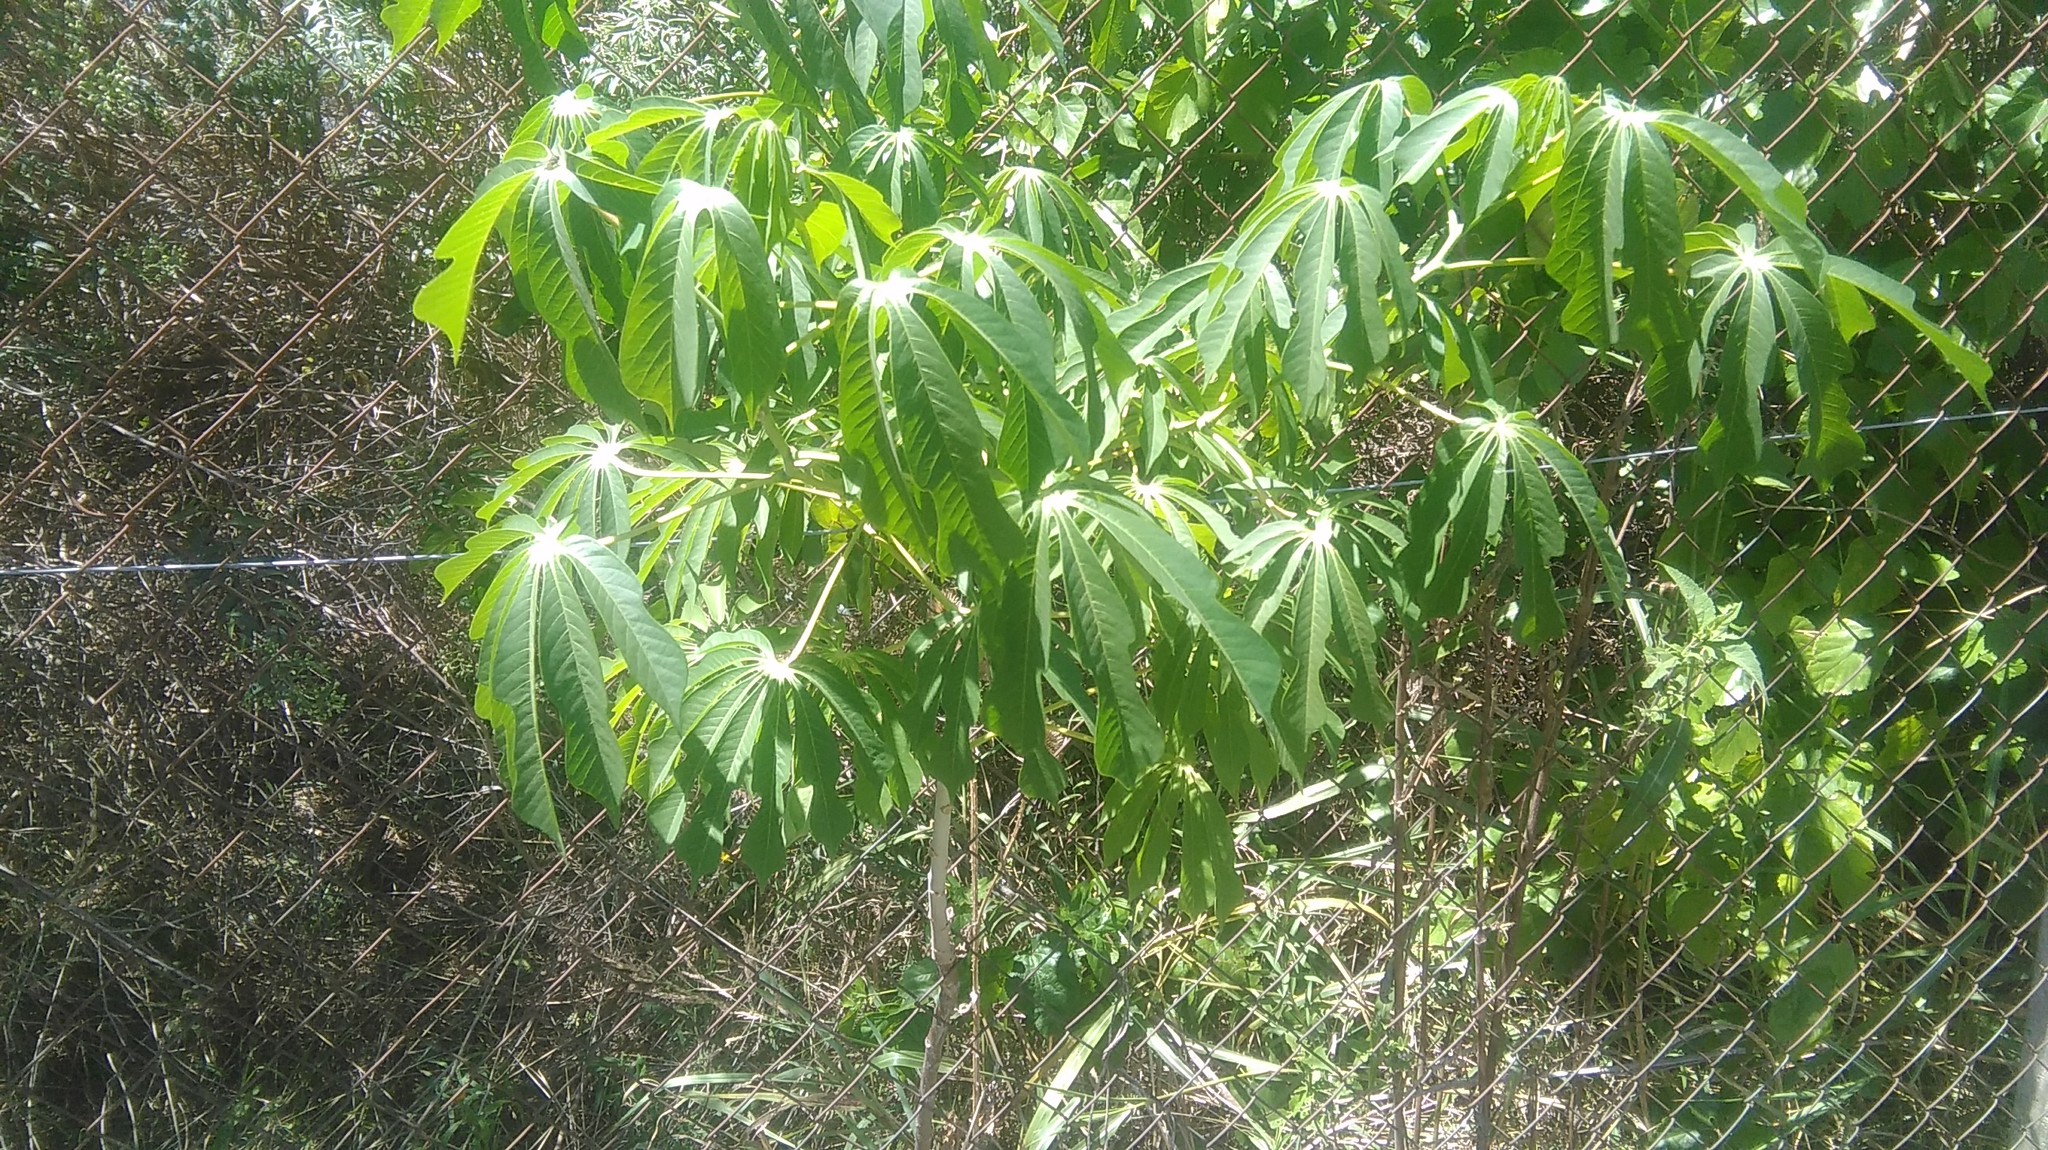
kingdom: Plantae
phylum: Tracheophyta
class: Magnoliopsida
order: Malpighiales
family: Euphorbiaceae
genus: Manihot
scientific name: Manihot grahamii
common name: Graham's manihot
